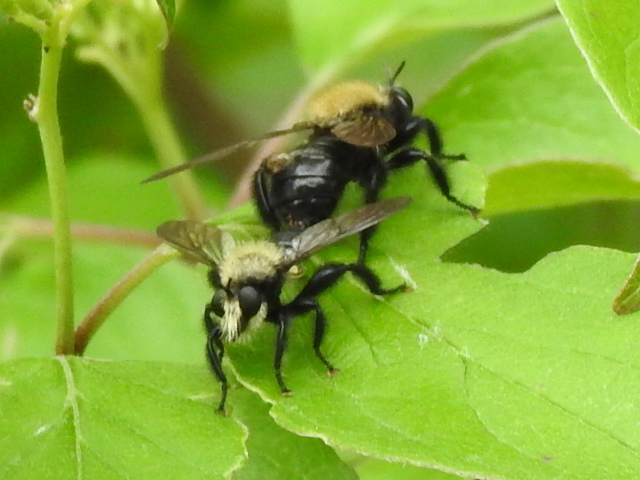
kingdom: Animalia
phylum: Arthropoda
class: Insecta
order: Diptera
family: Asilidae
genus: Laphria
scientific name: Laphria flavicollis
